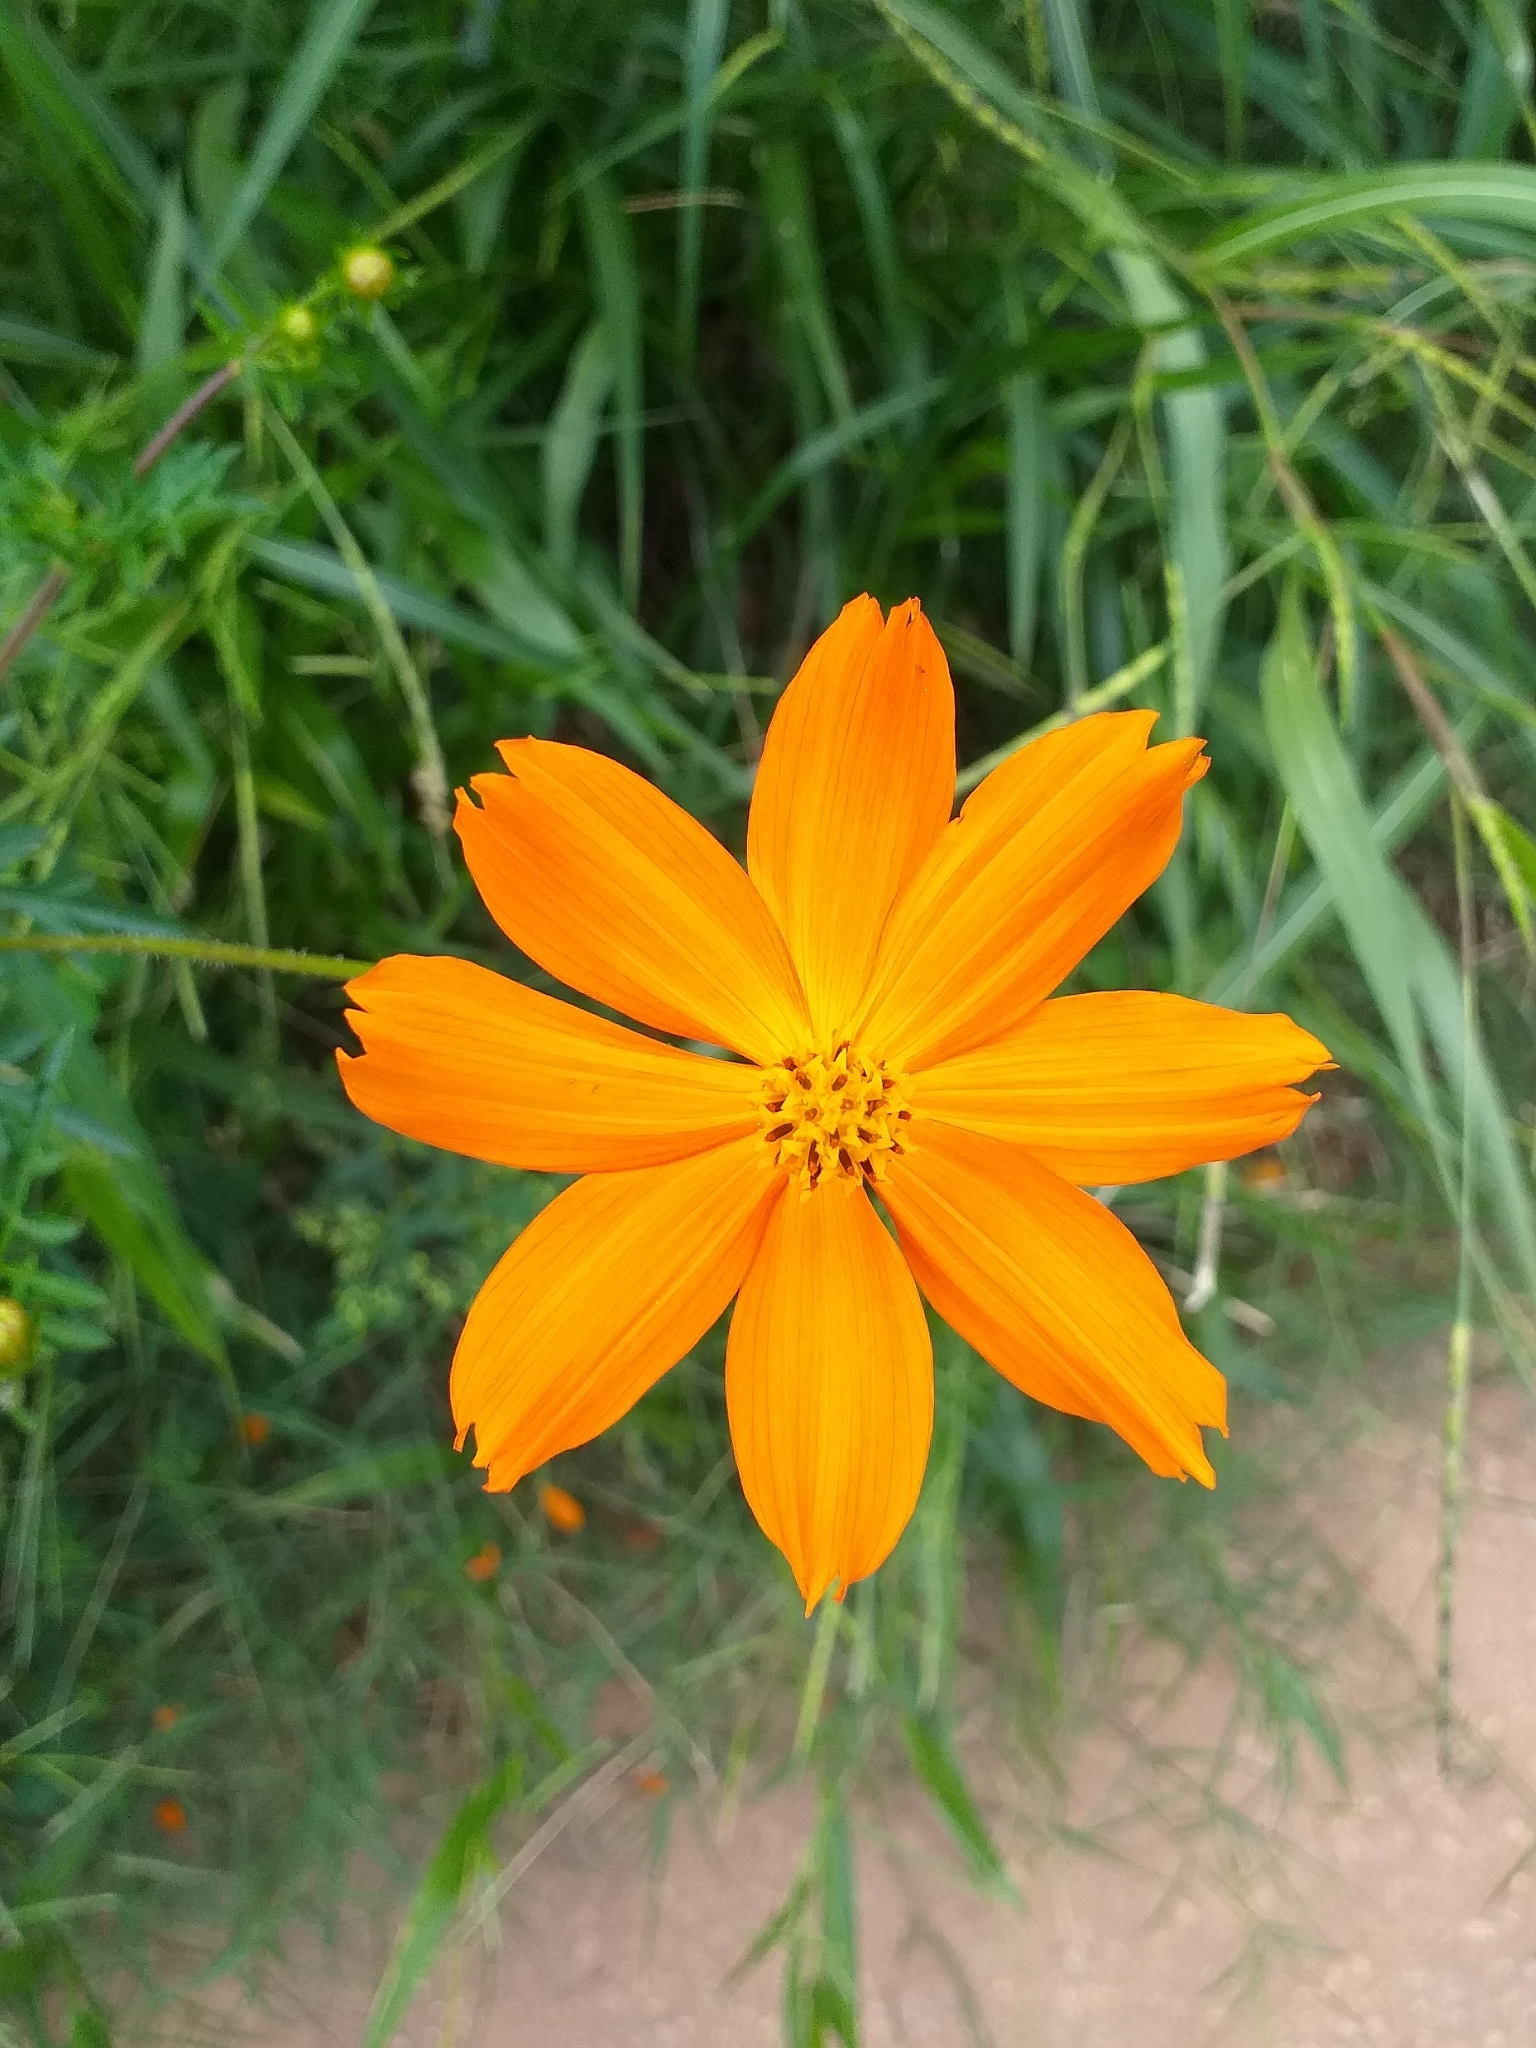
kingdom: Plantae
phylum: Tracheophyta
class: Magnoliopsida
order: Asterales
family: Asteraceae
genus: Cosmos
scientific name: Cosmos sulphureus
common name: Sulphur cosmos
